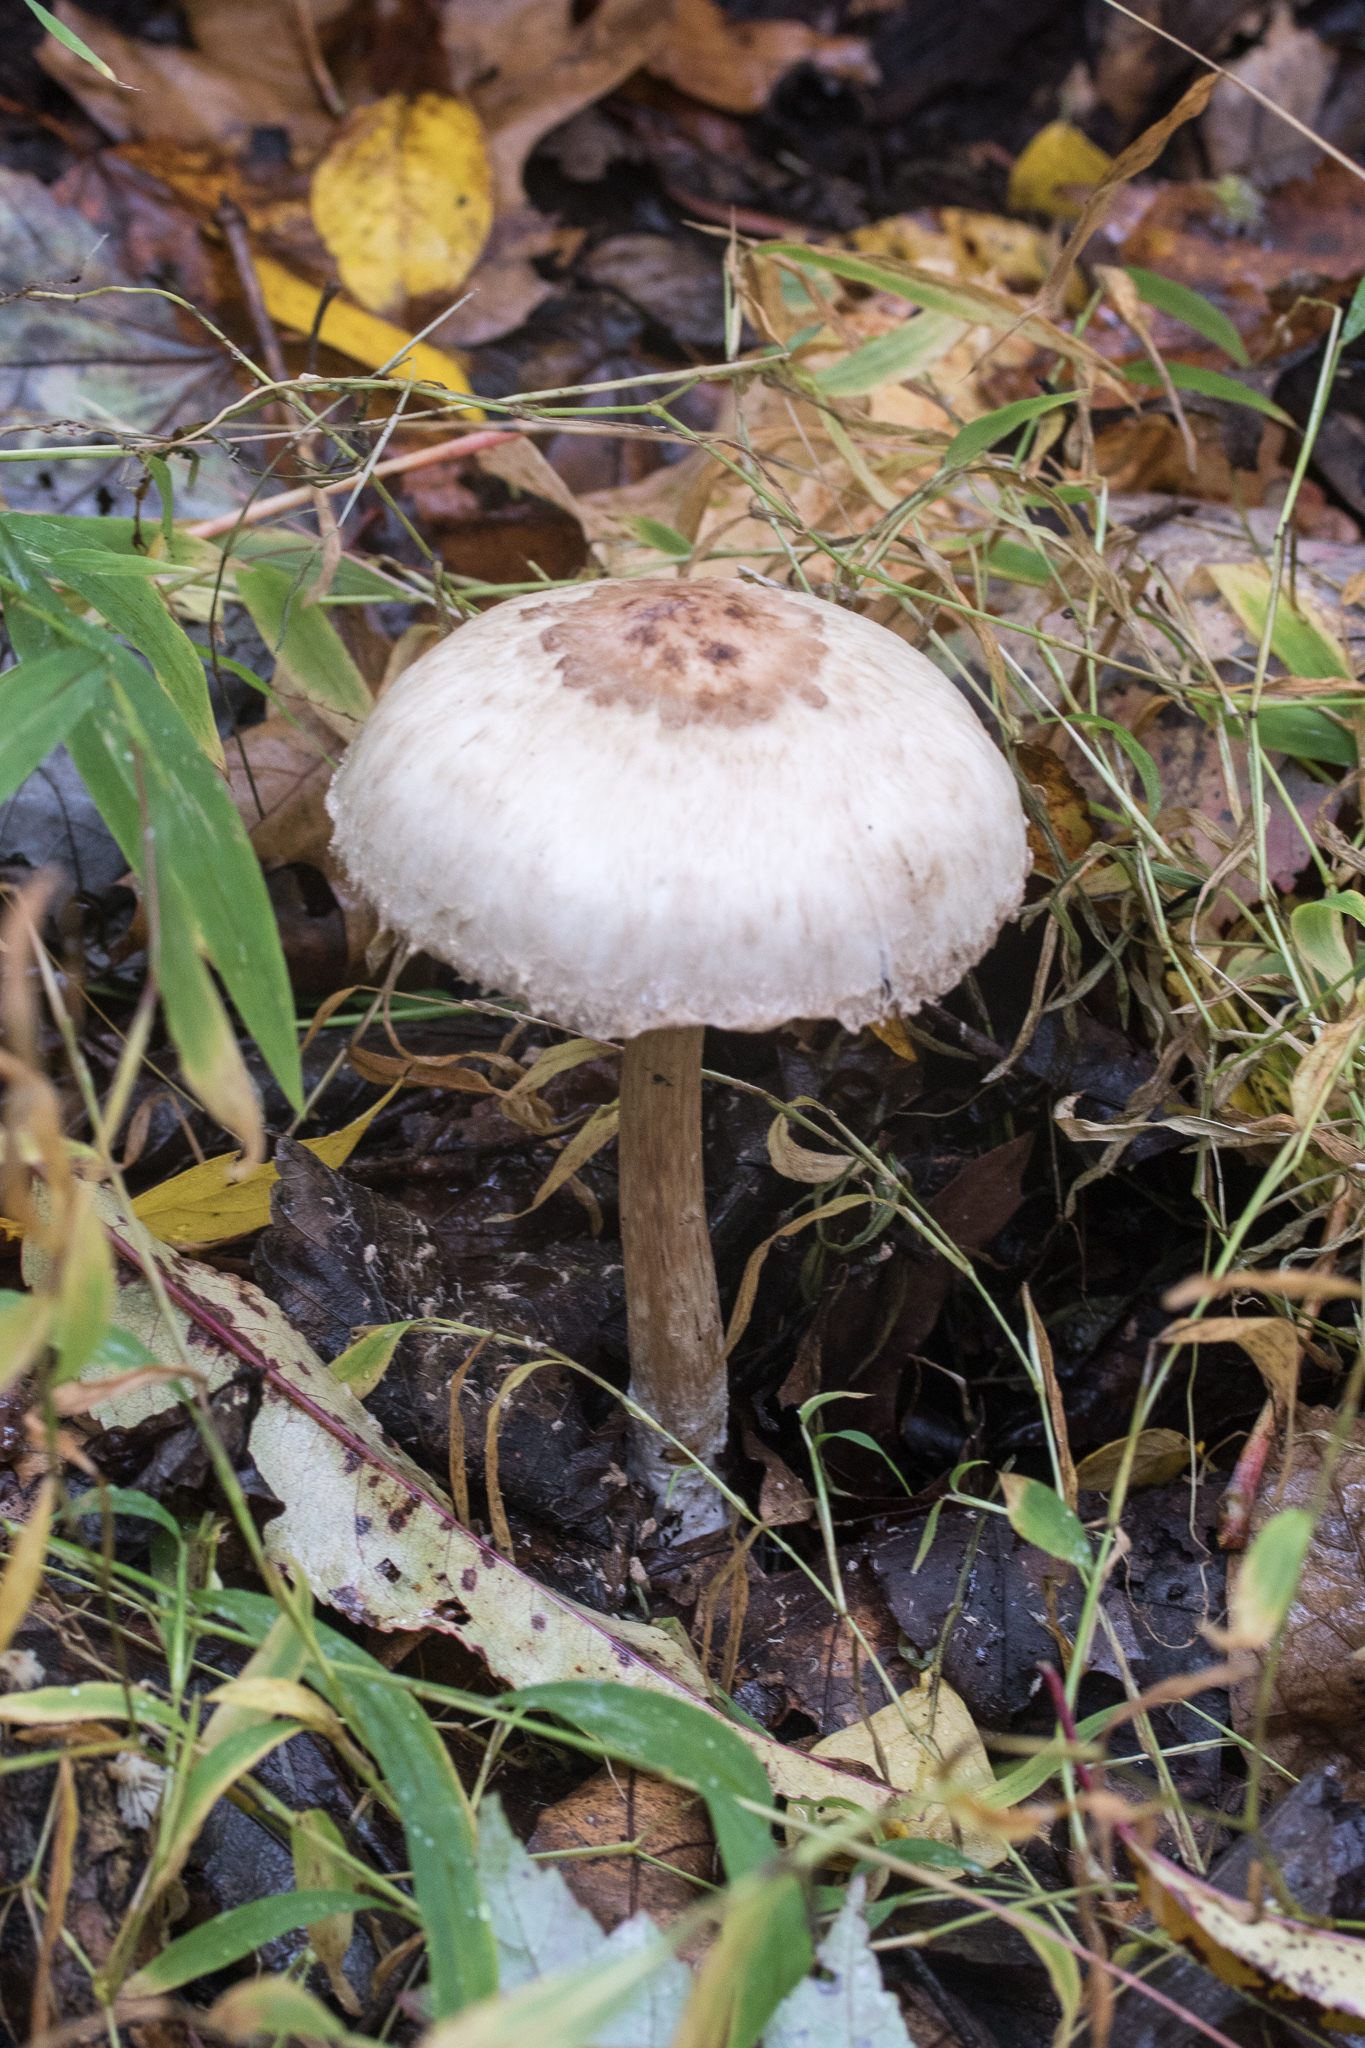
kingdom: Fungi
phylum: Basidiomycota
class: Agaricomycetes
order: Agaricales
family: Agaricaceae
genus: Chlorophyllum
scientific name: Chlorophyllum rhacodes
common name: Shaggy parasol
